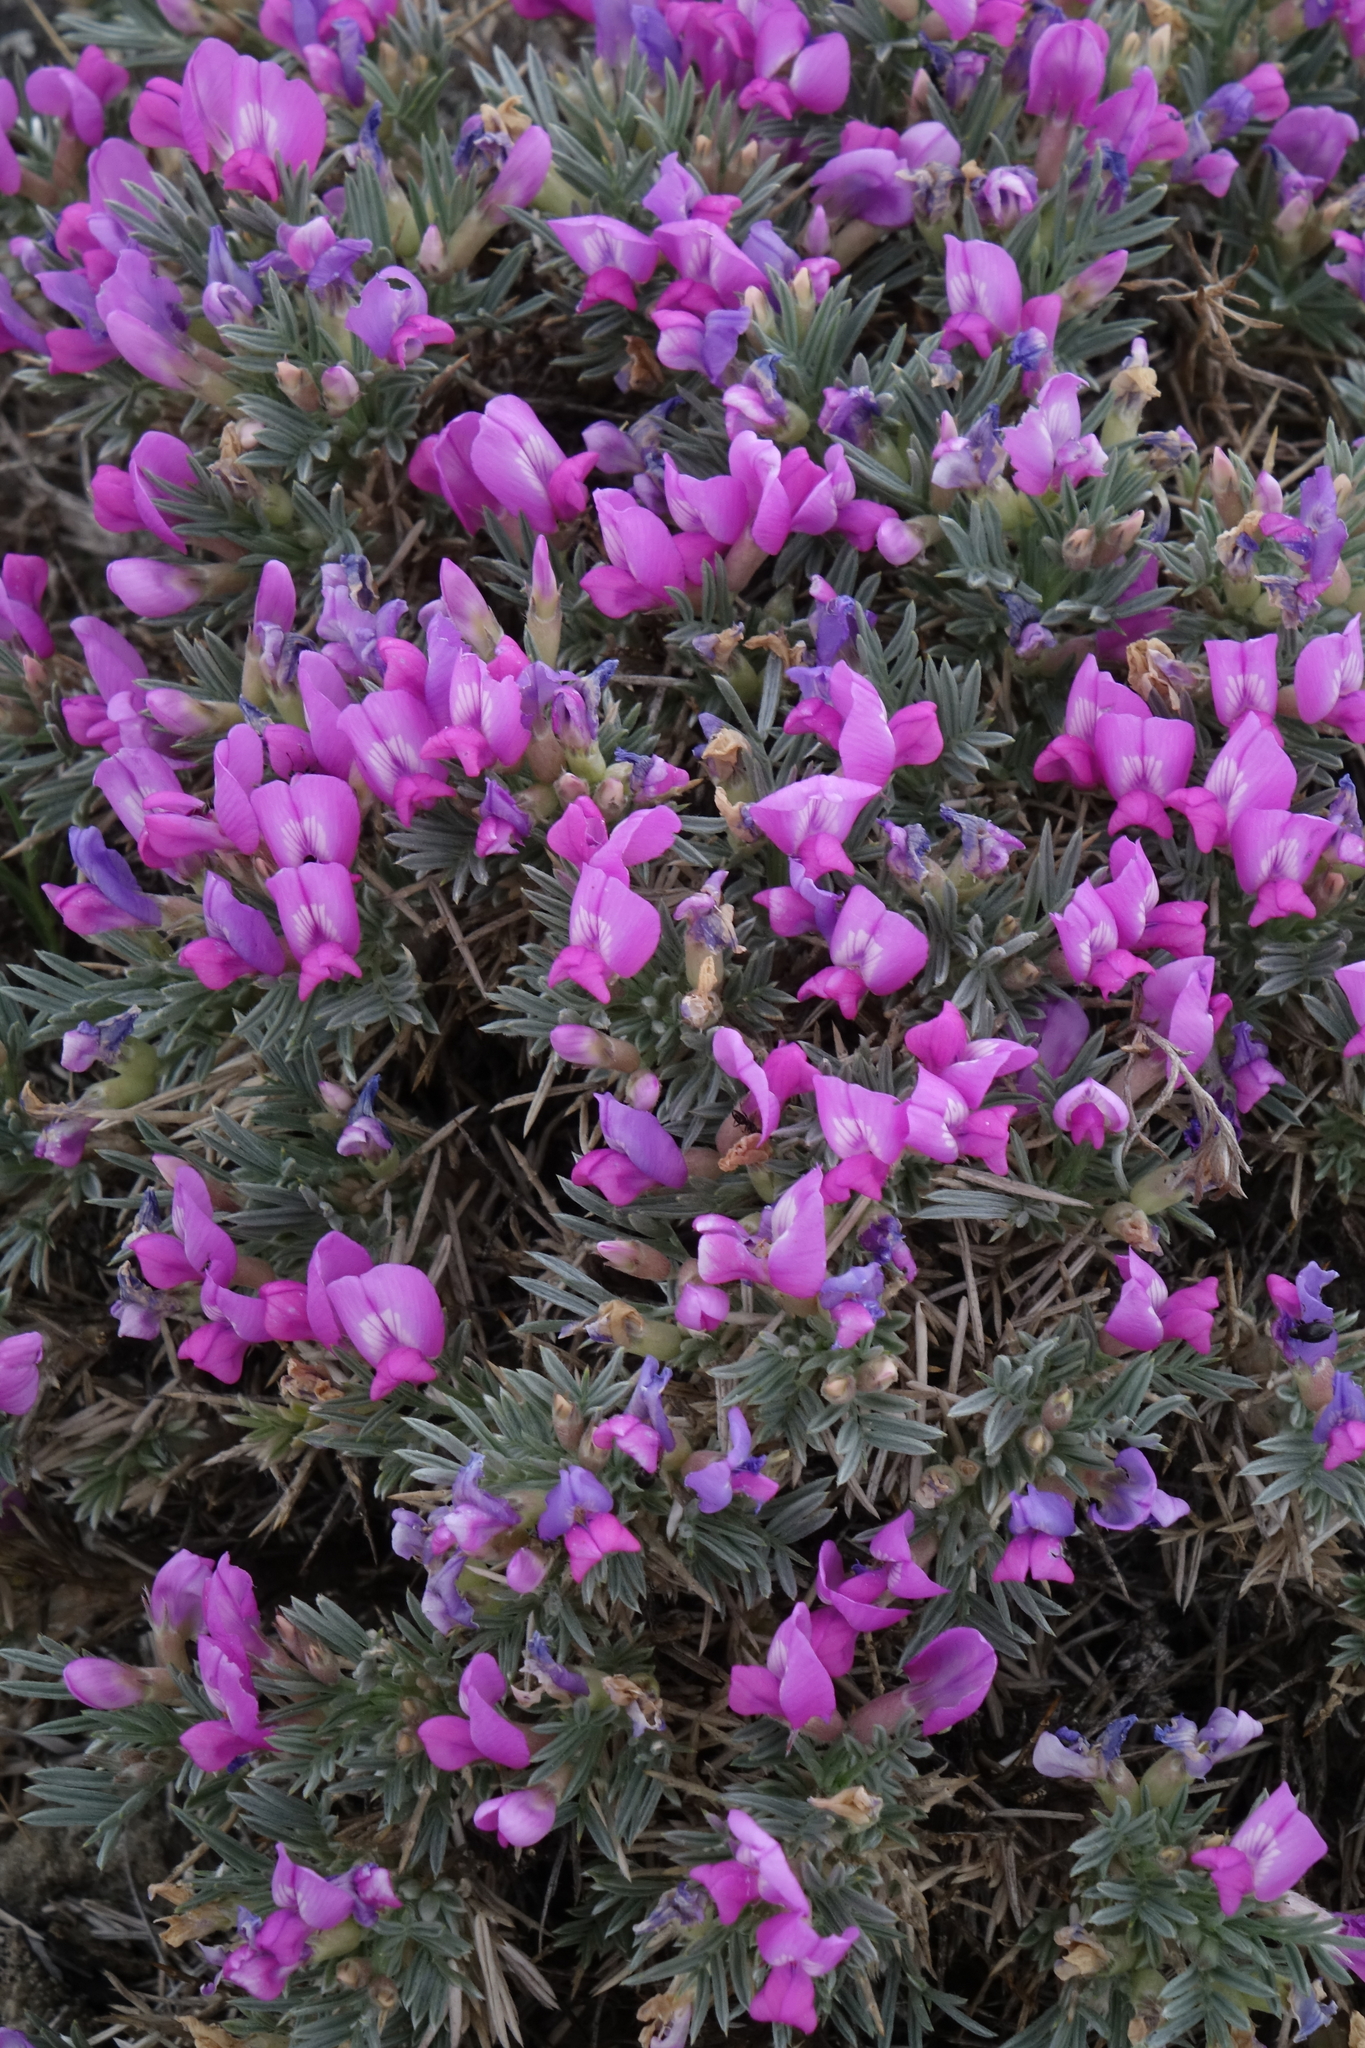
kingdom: Plantae
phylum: Tracheophyta
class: Magnoliopsida
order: Fabales
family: Fabaceae
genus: Oxytropis
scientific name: Oxytropis borissoviae
